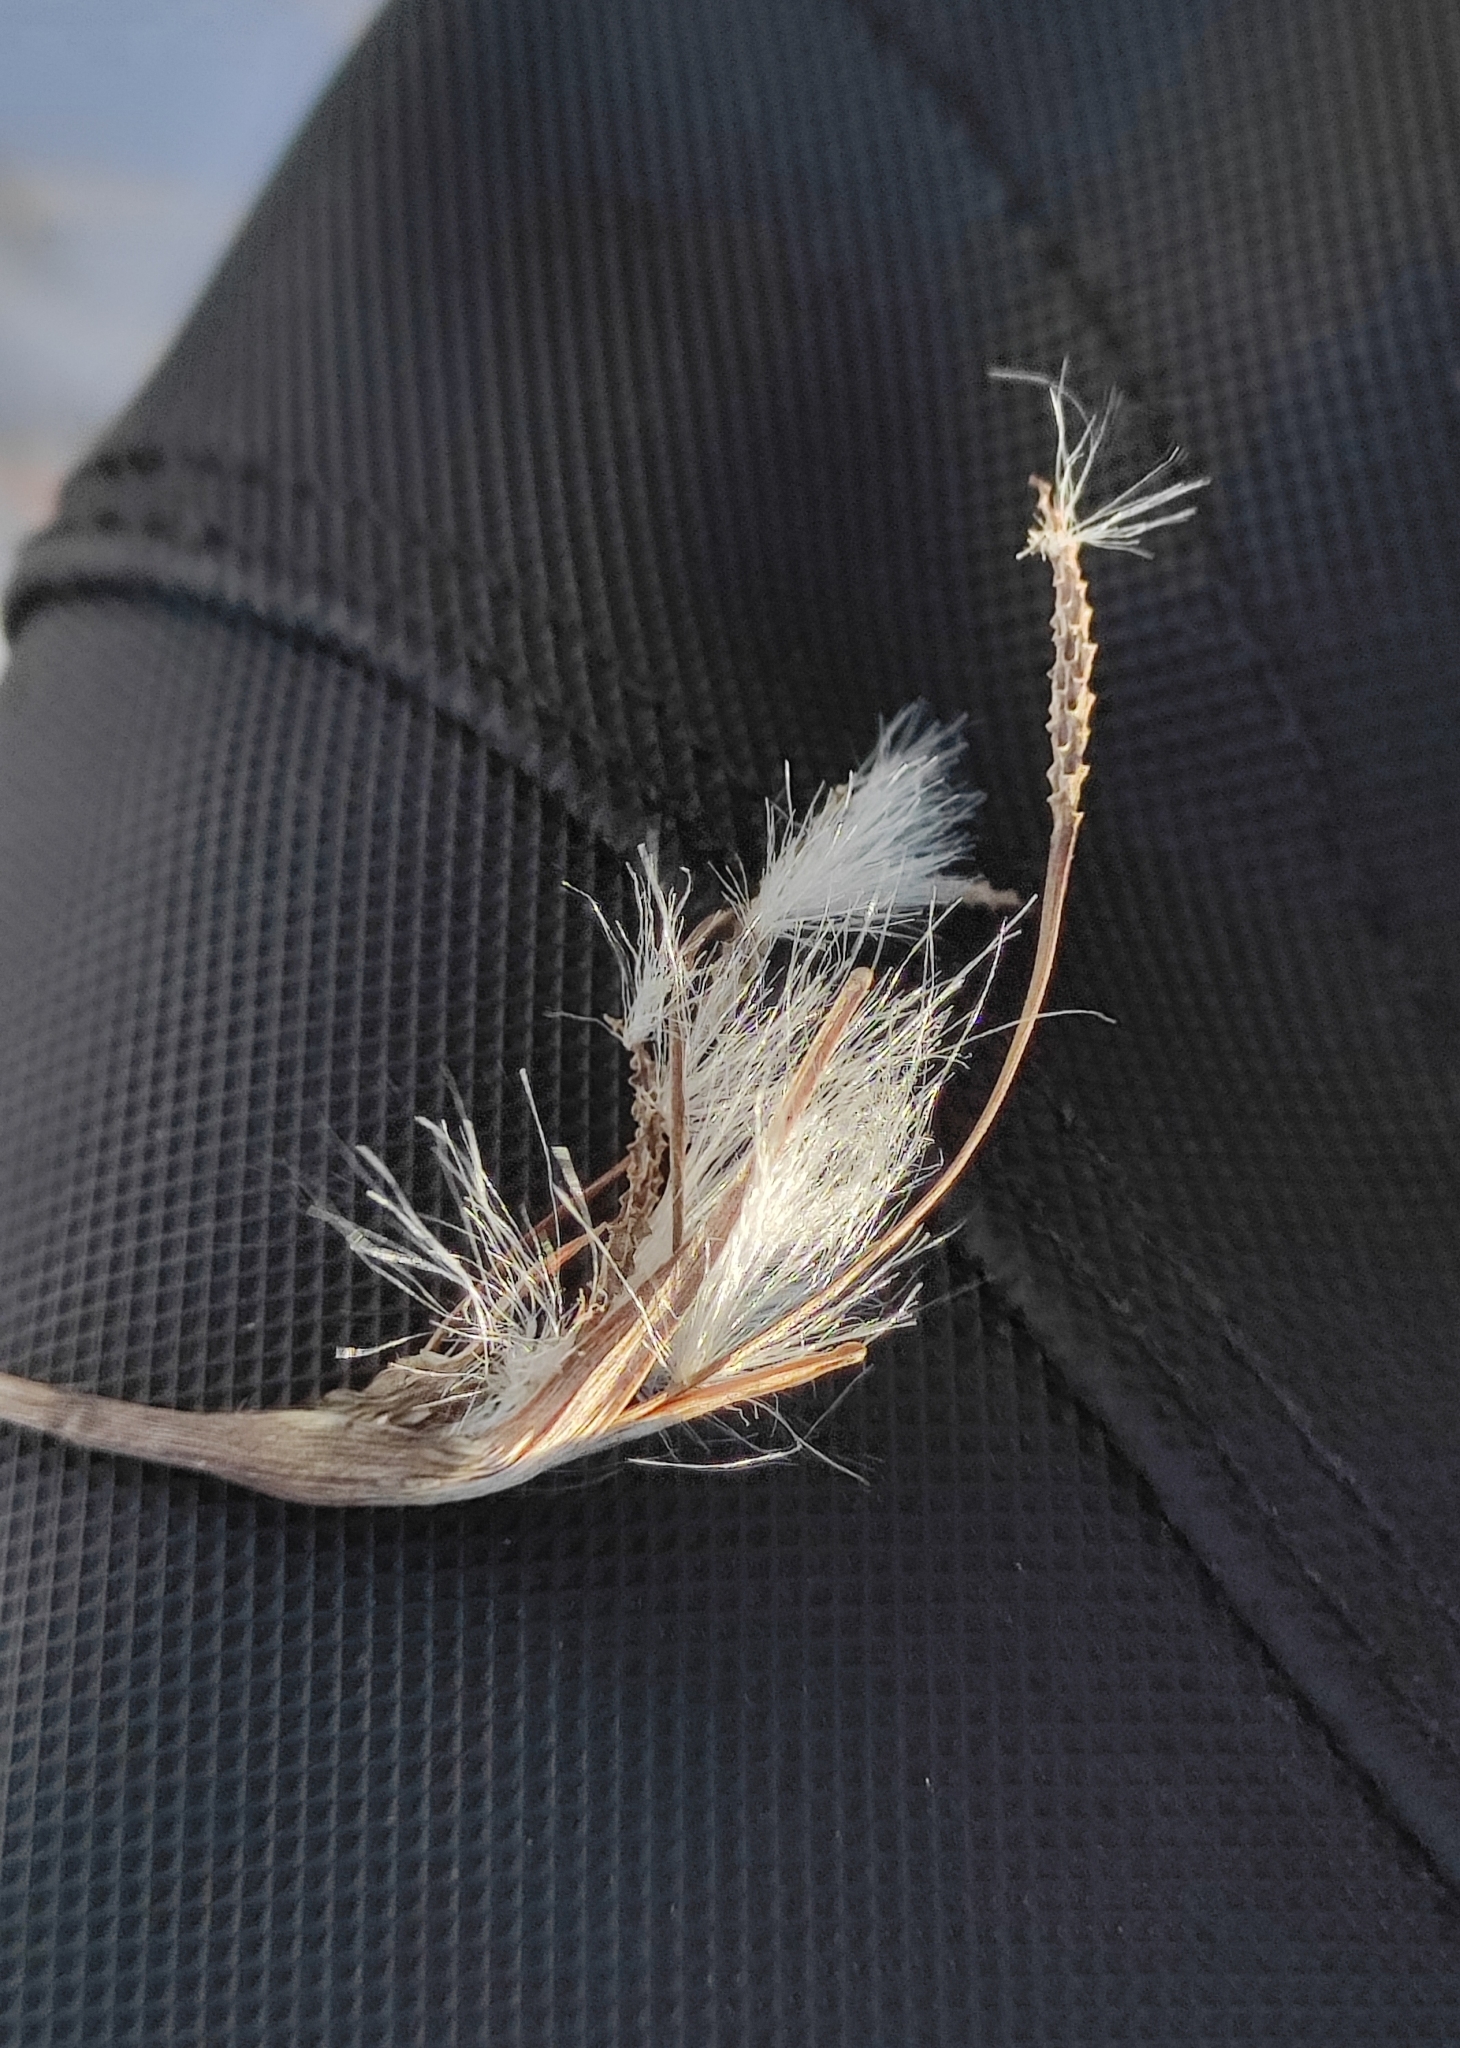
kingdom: Plantae
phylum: Tracheophyta
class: Liliopsida
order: Poales
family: Cyperaceae
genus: Eriophorum
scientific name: Eriophorum angustifolium
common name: Common cottongrass
